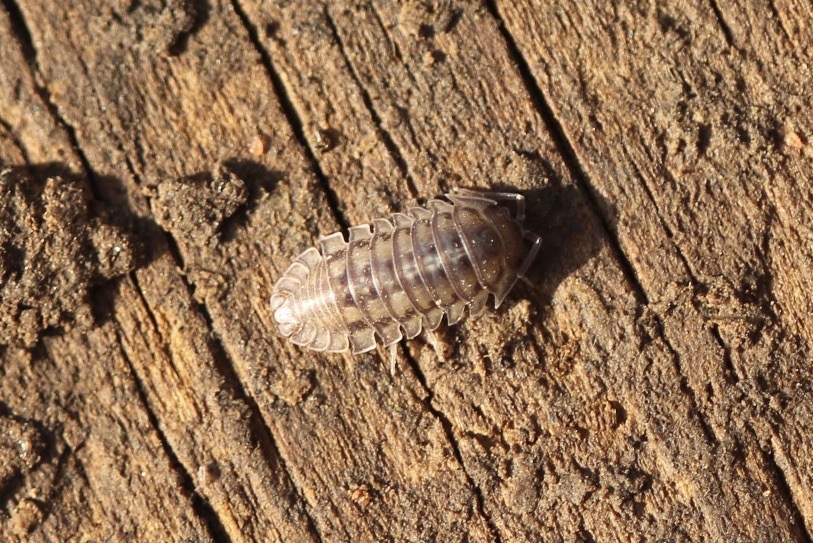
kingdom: Animalia
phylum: Arthropoda
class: Malacostraca
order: Isopoda
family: Armadillidiidae
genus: Armadillidium
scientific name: Armadillidium nasatum
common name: Isopod
